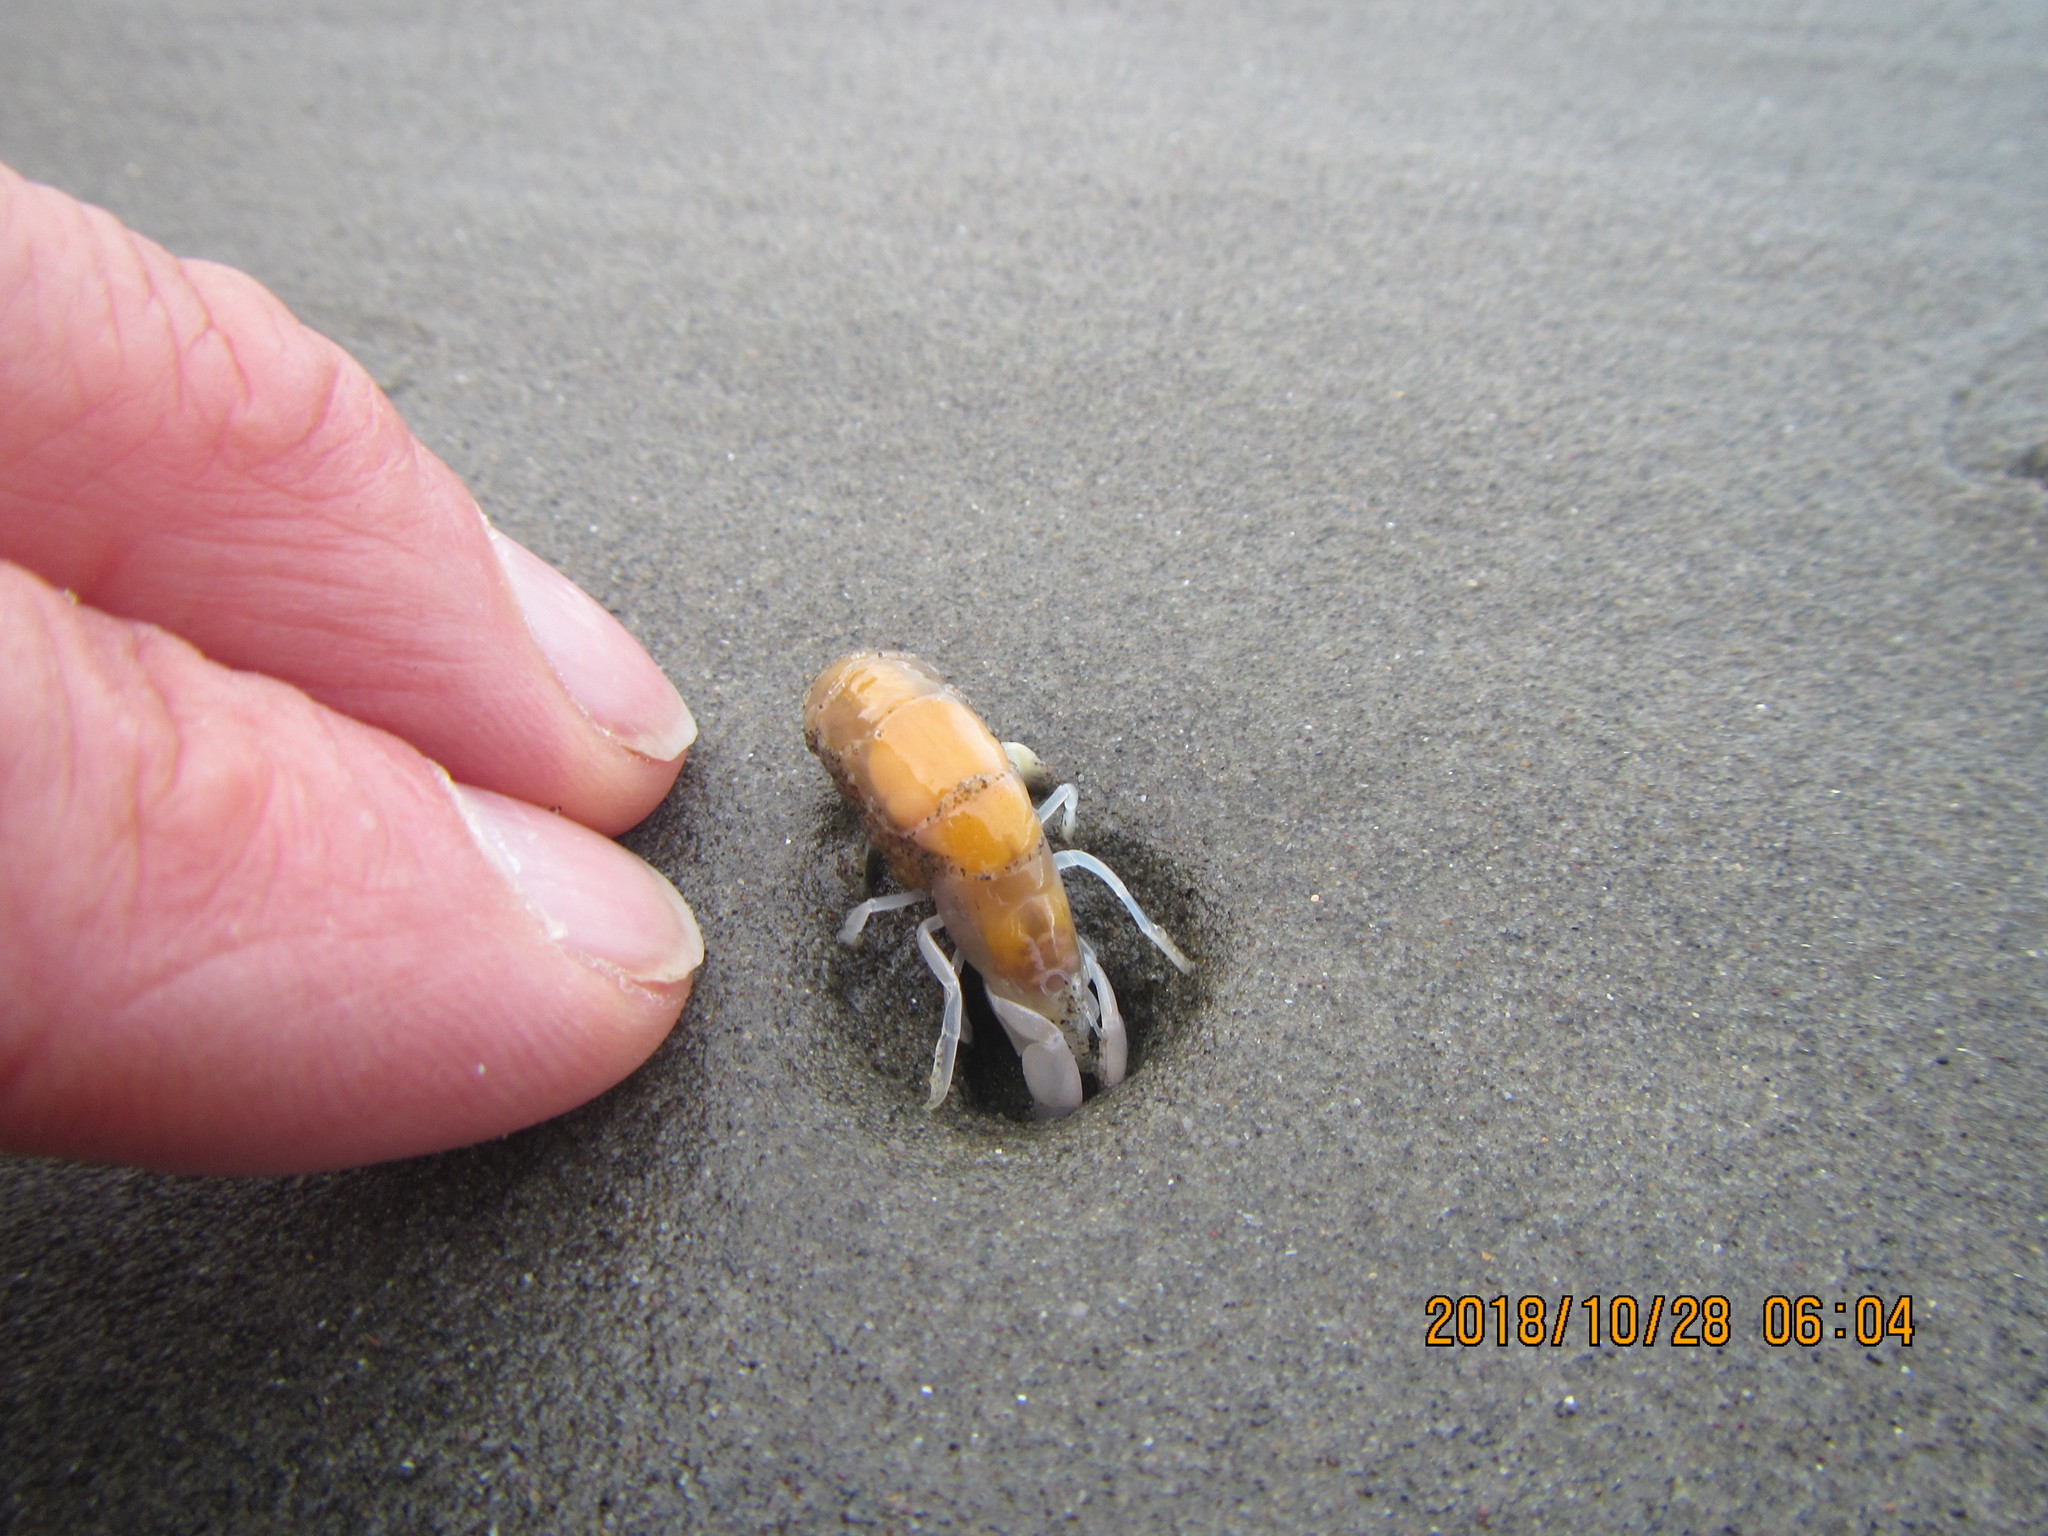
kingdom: Animalia
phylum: Arthropoda
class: Malacostraca
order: Decapoda
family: Callianassidae
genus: Filhollianassa
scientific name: Filhollianassa filholi
